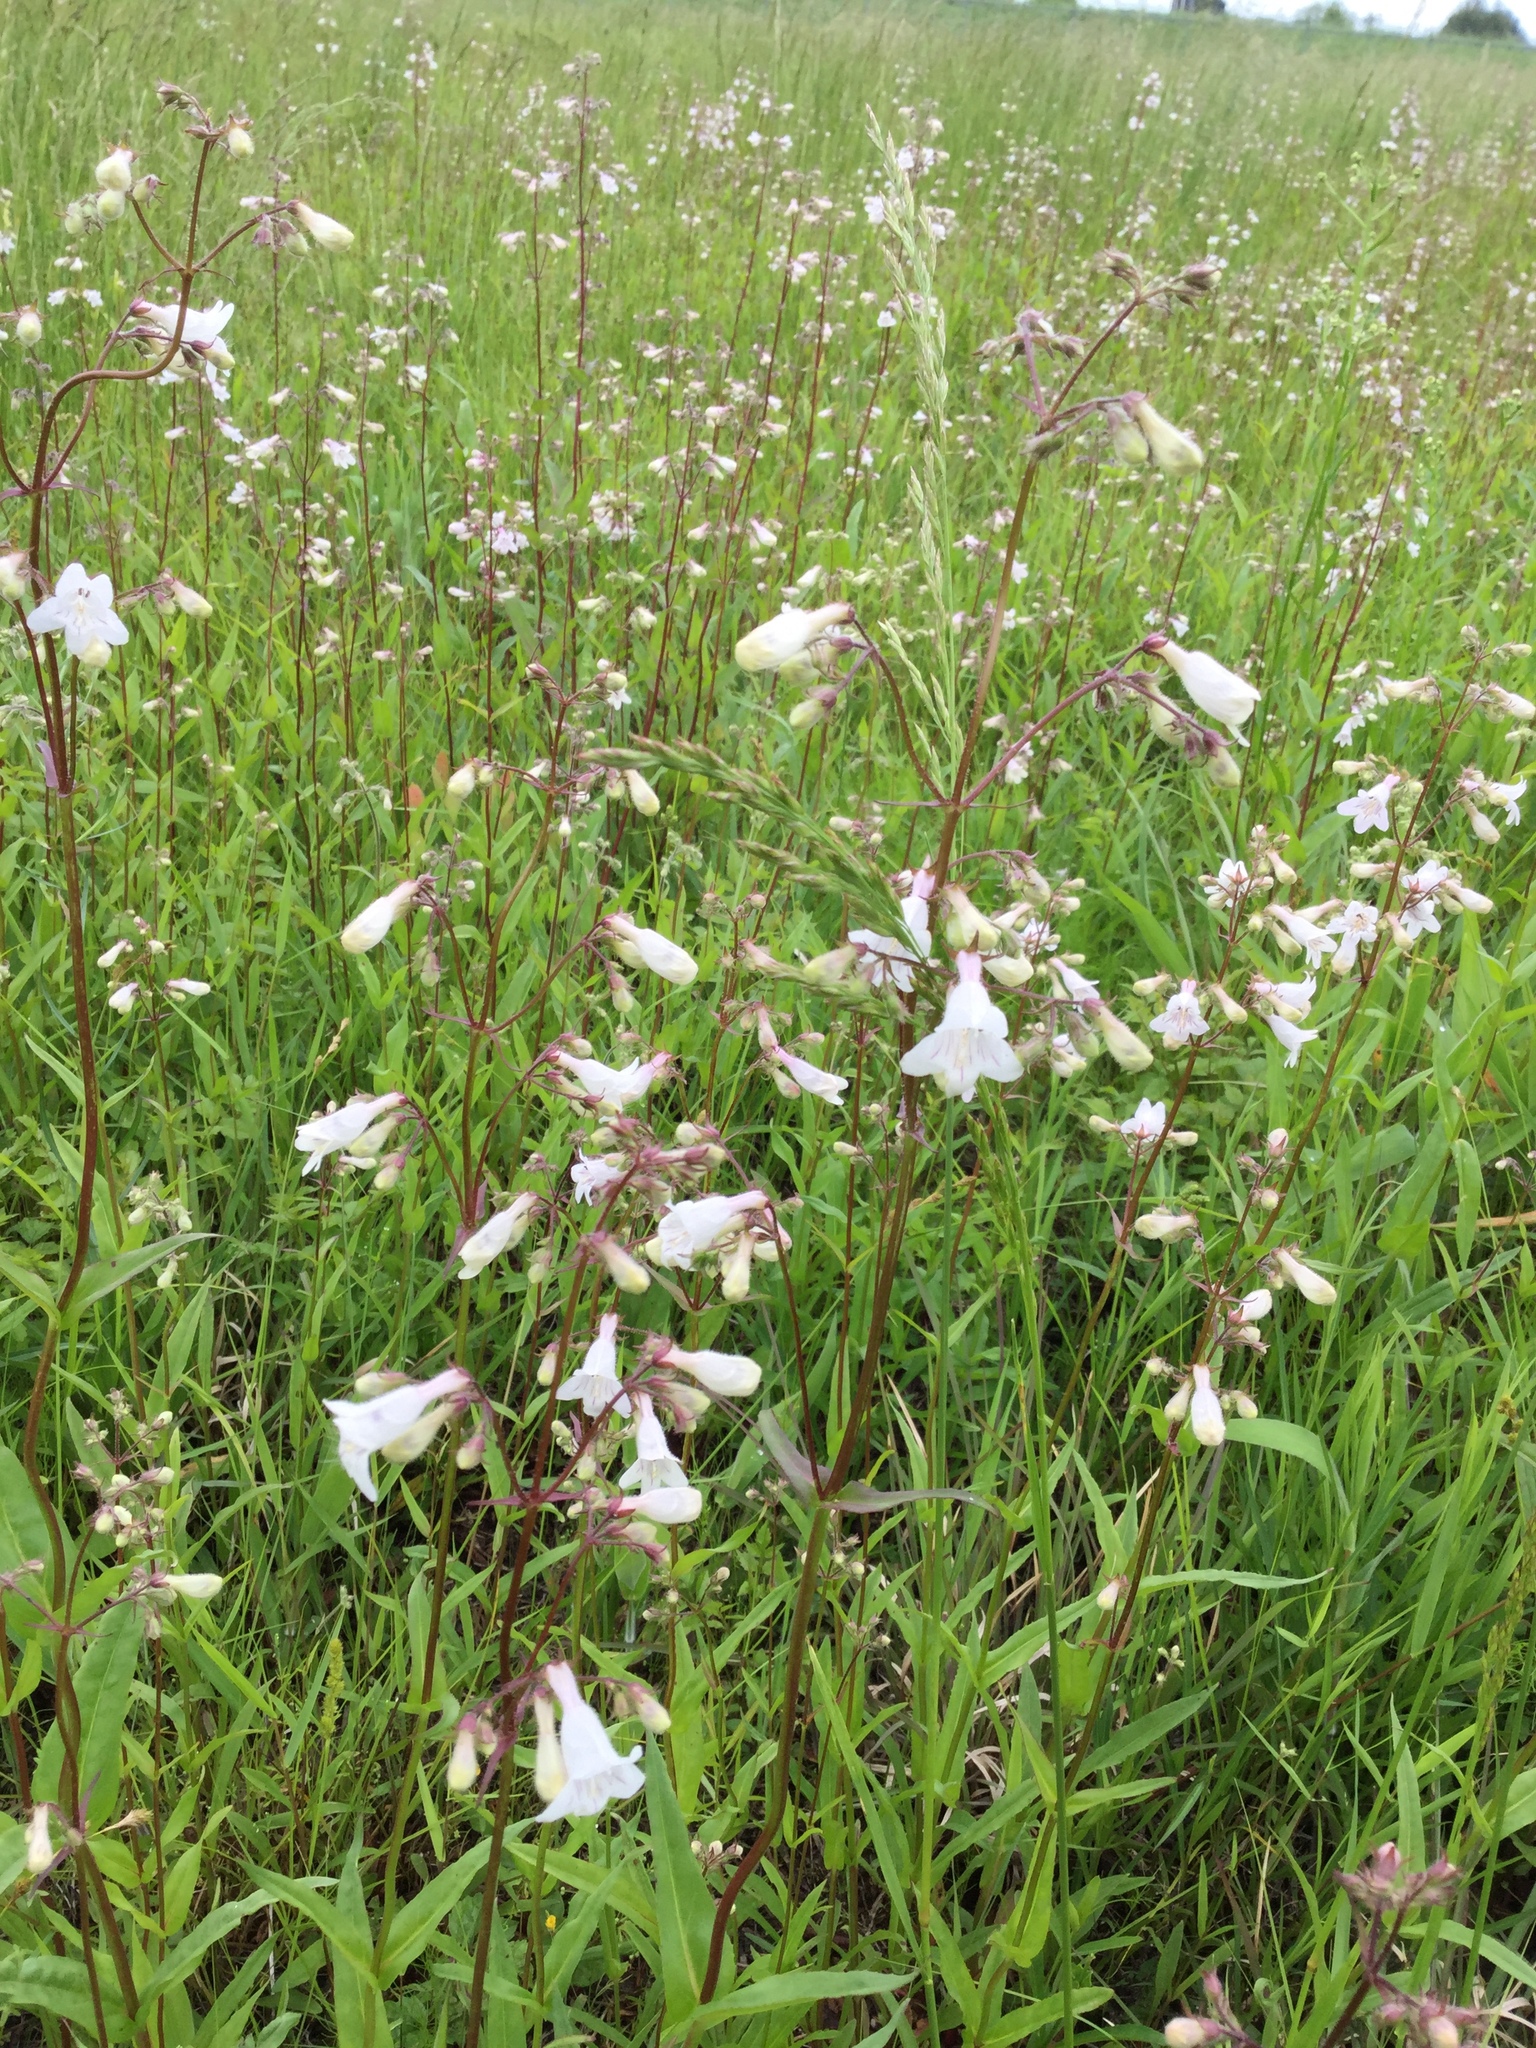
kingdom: Plantae
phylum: Tracheophyta
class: Magnoliopsida
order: Lamiales
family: Plantaginaceae
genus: Penstemon
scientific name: Penstemon digitalis
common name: Foxglove beardtongue
